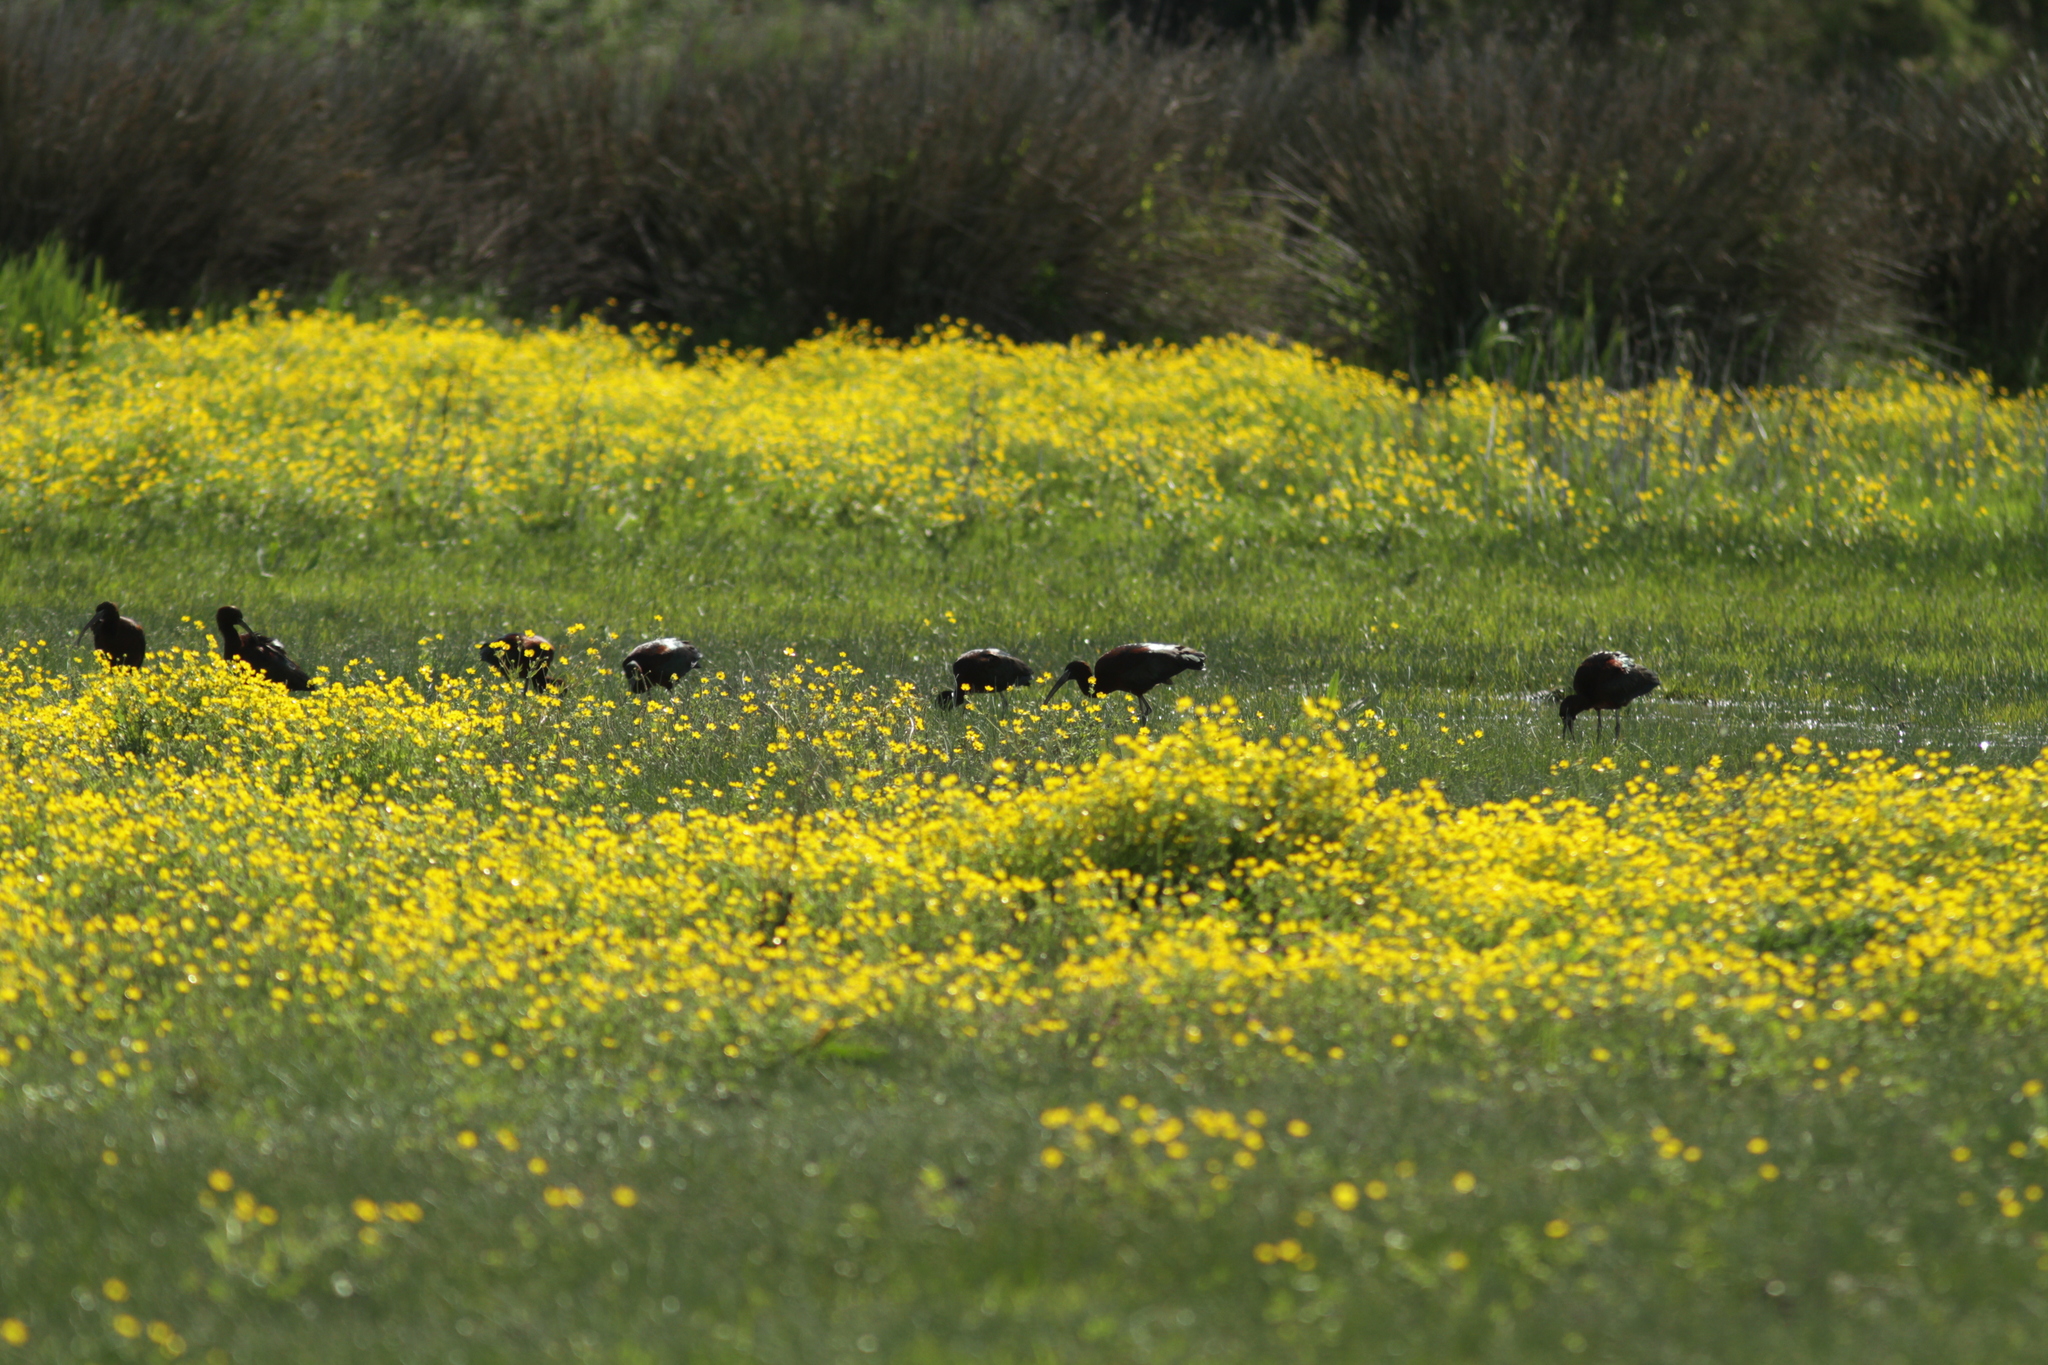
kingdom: Animalia
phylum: Chordata
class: Aves
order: Pelecaniformes
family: Threskiornithidae
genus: Plegadis
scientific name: Plegadis falcinellus
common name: Glossy ibis
